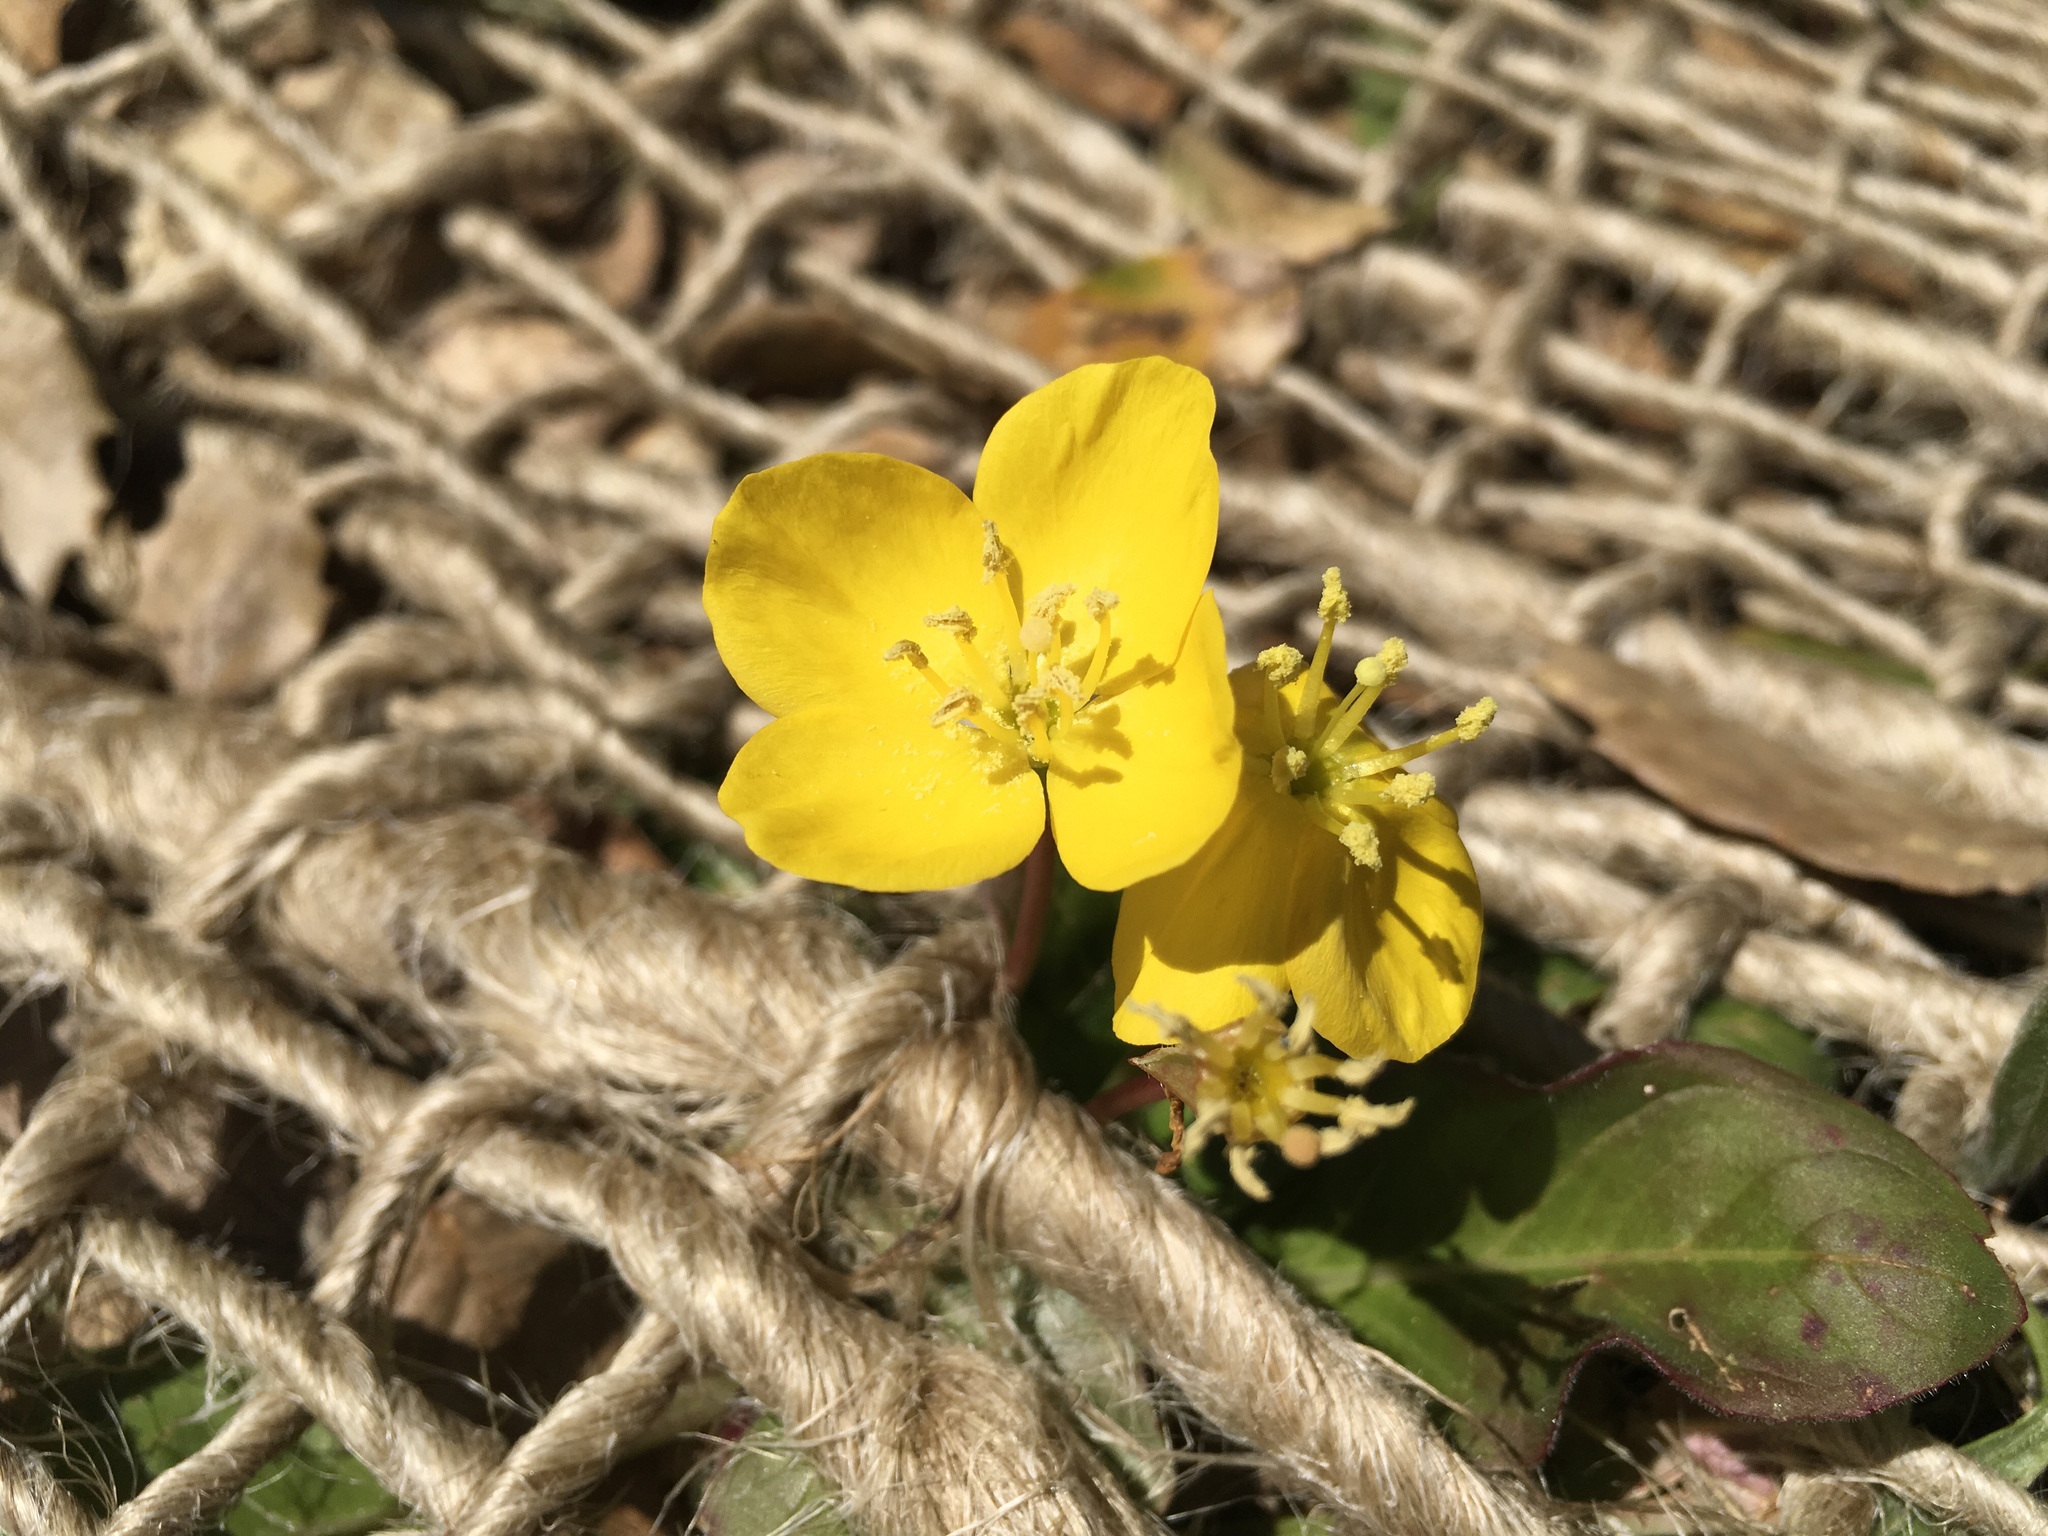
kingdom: Plantae
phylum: Tracheophyta
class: Magnoliopsida
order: Myrtales
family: Onagraceae
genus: Taraxia
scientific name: Taraxia ovata
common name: Goldeneggs
